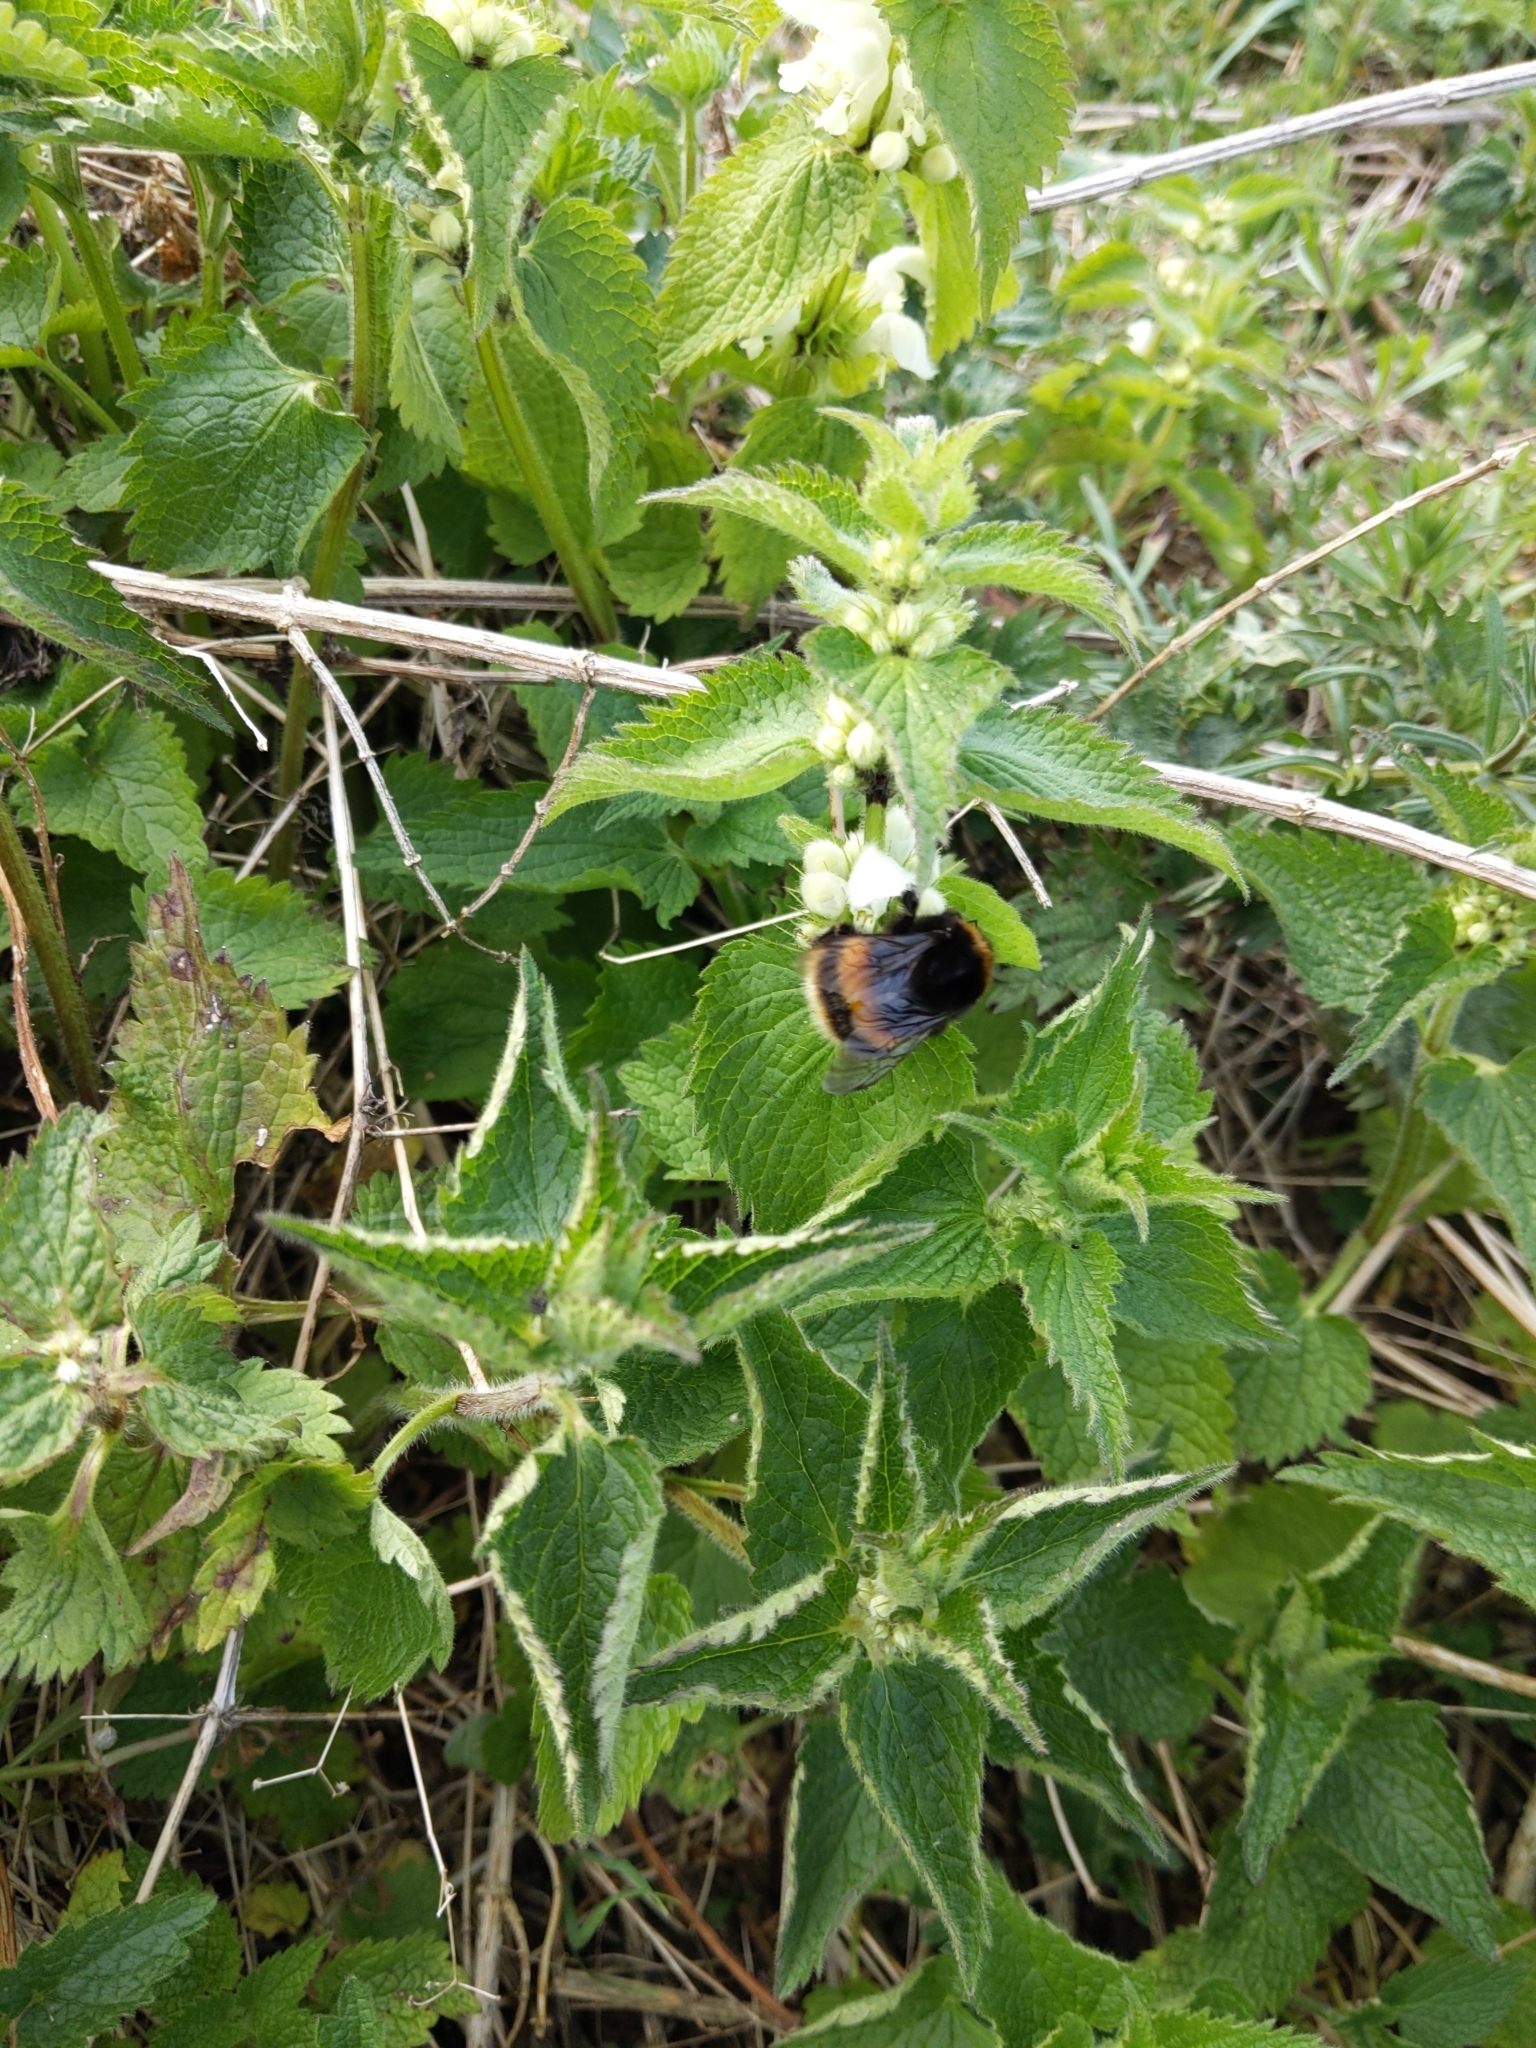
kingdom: Animalia
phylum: Arthropoda
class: Insecta
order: Hymenoptera
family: Apidae
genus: Bombus
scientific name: Bombus terrestris
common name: Buff-tailed bumblebee
